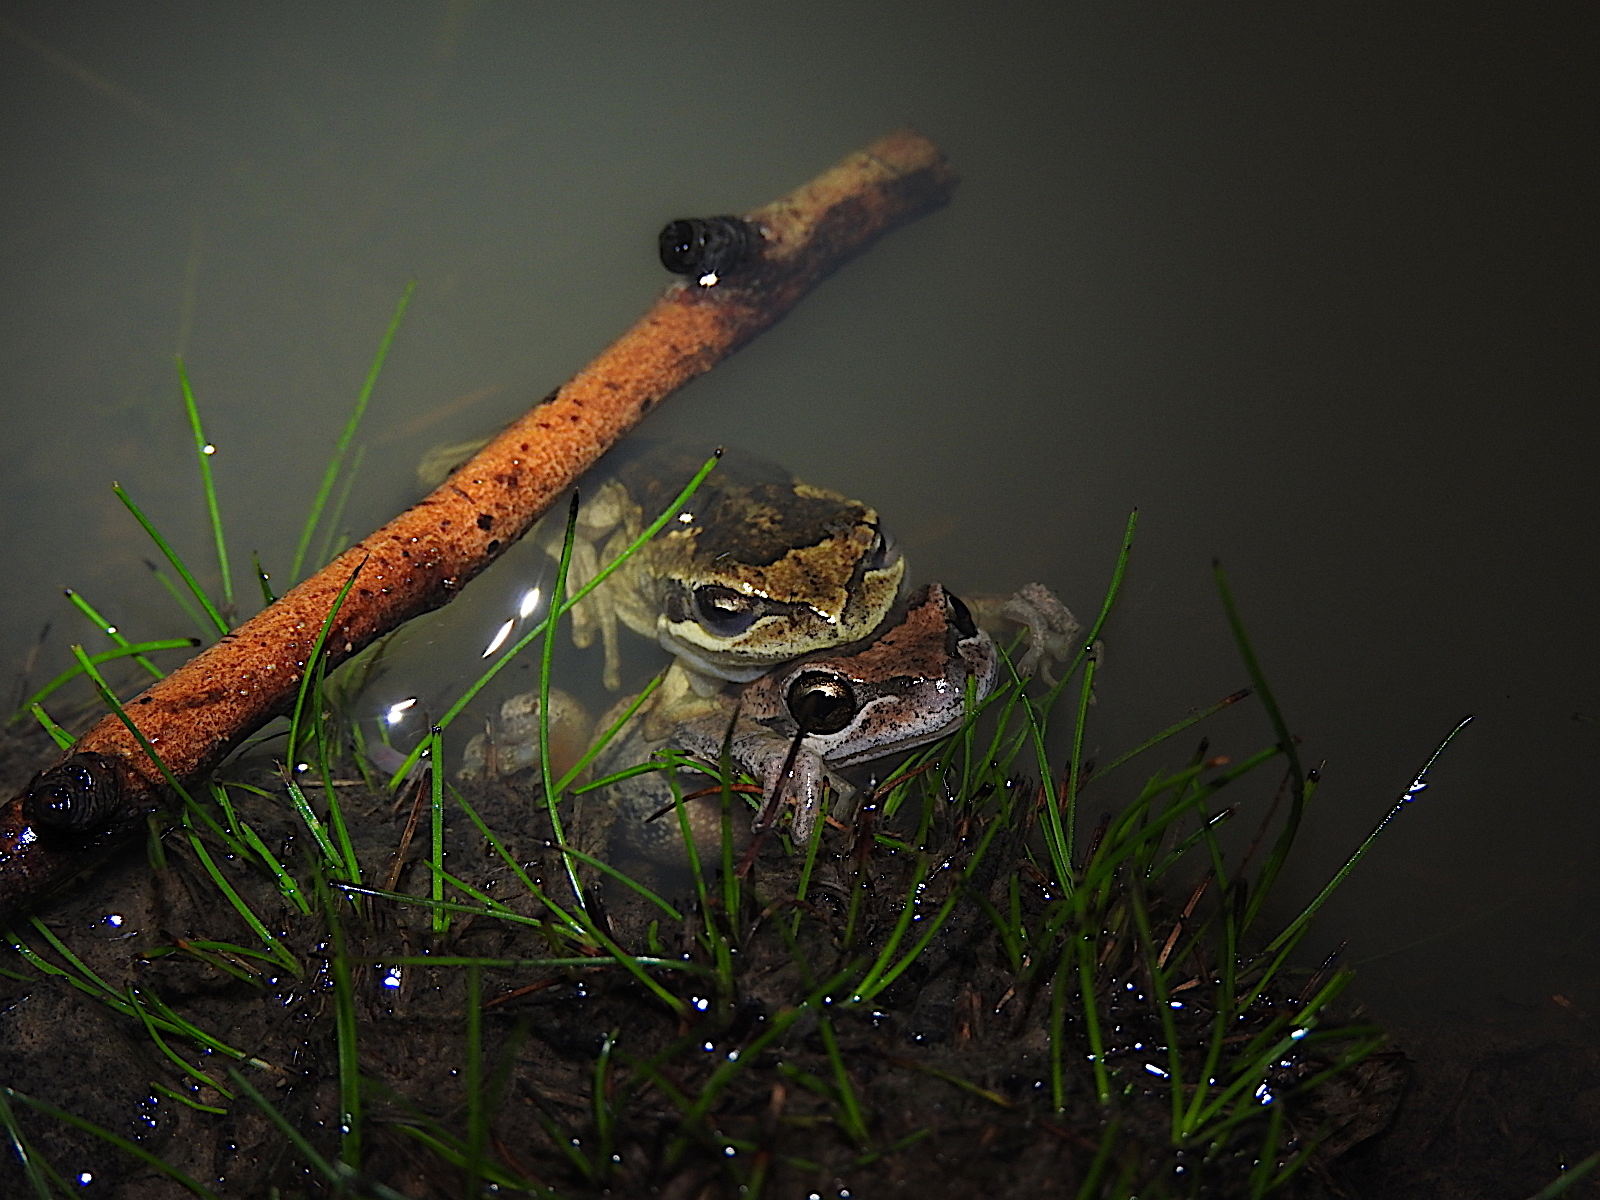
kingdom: Animalia
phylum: Chordata
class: Amphibia
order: Anura
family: Pelodryadidae
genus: Litoria
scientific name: Litoria ewingii
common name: Southern brown tree frog
